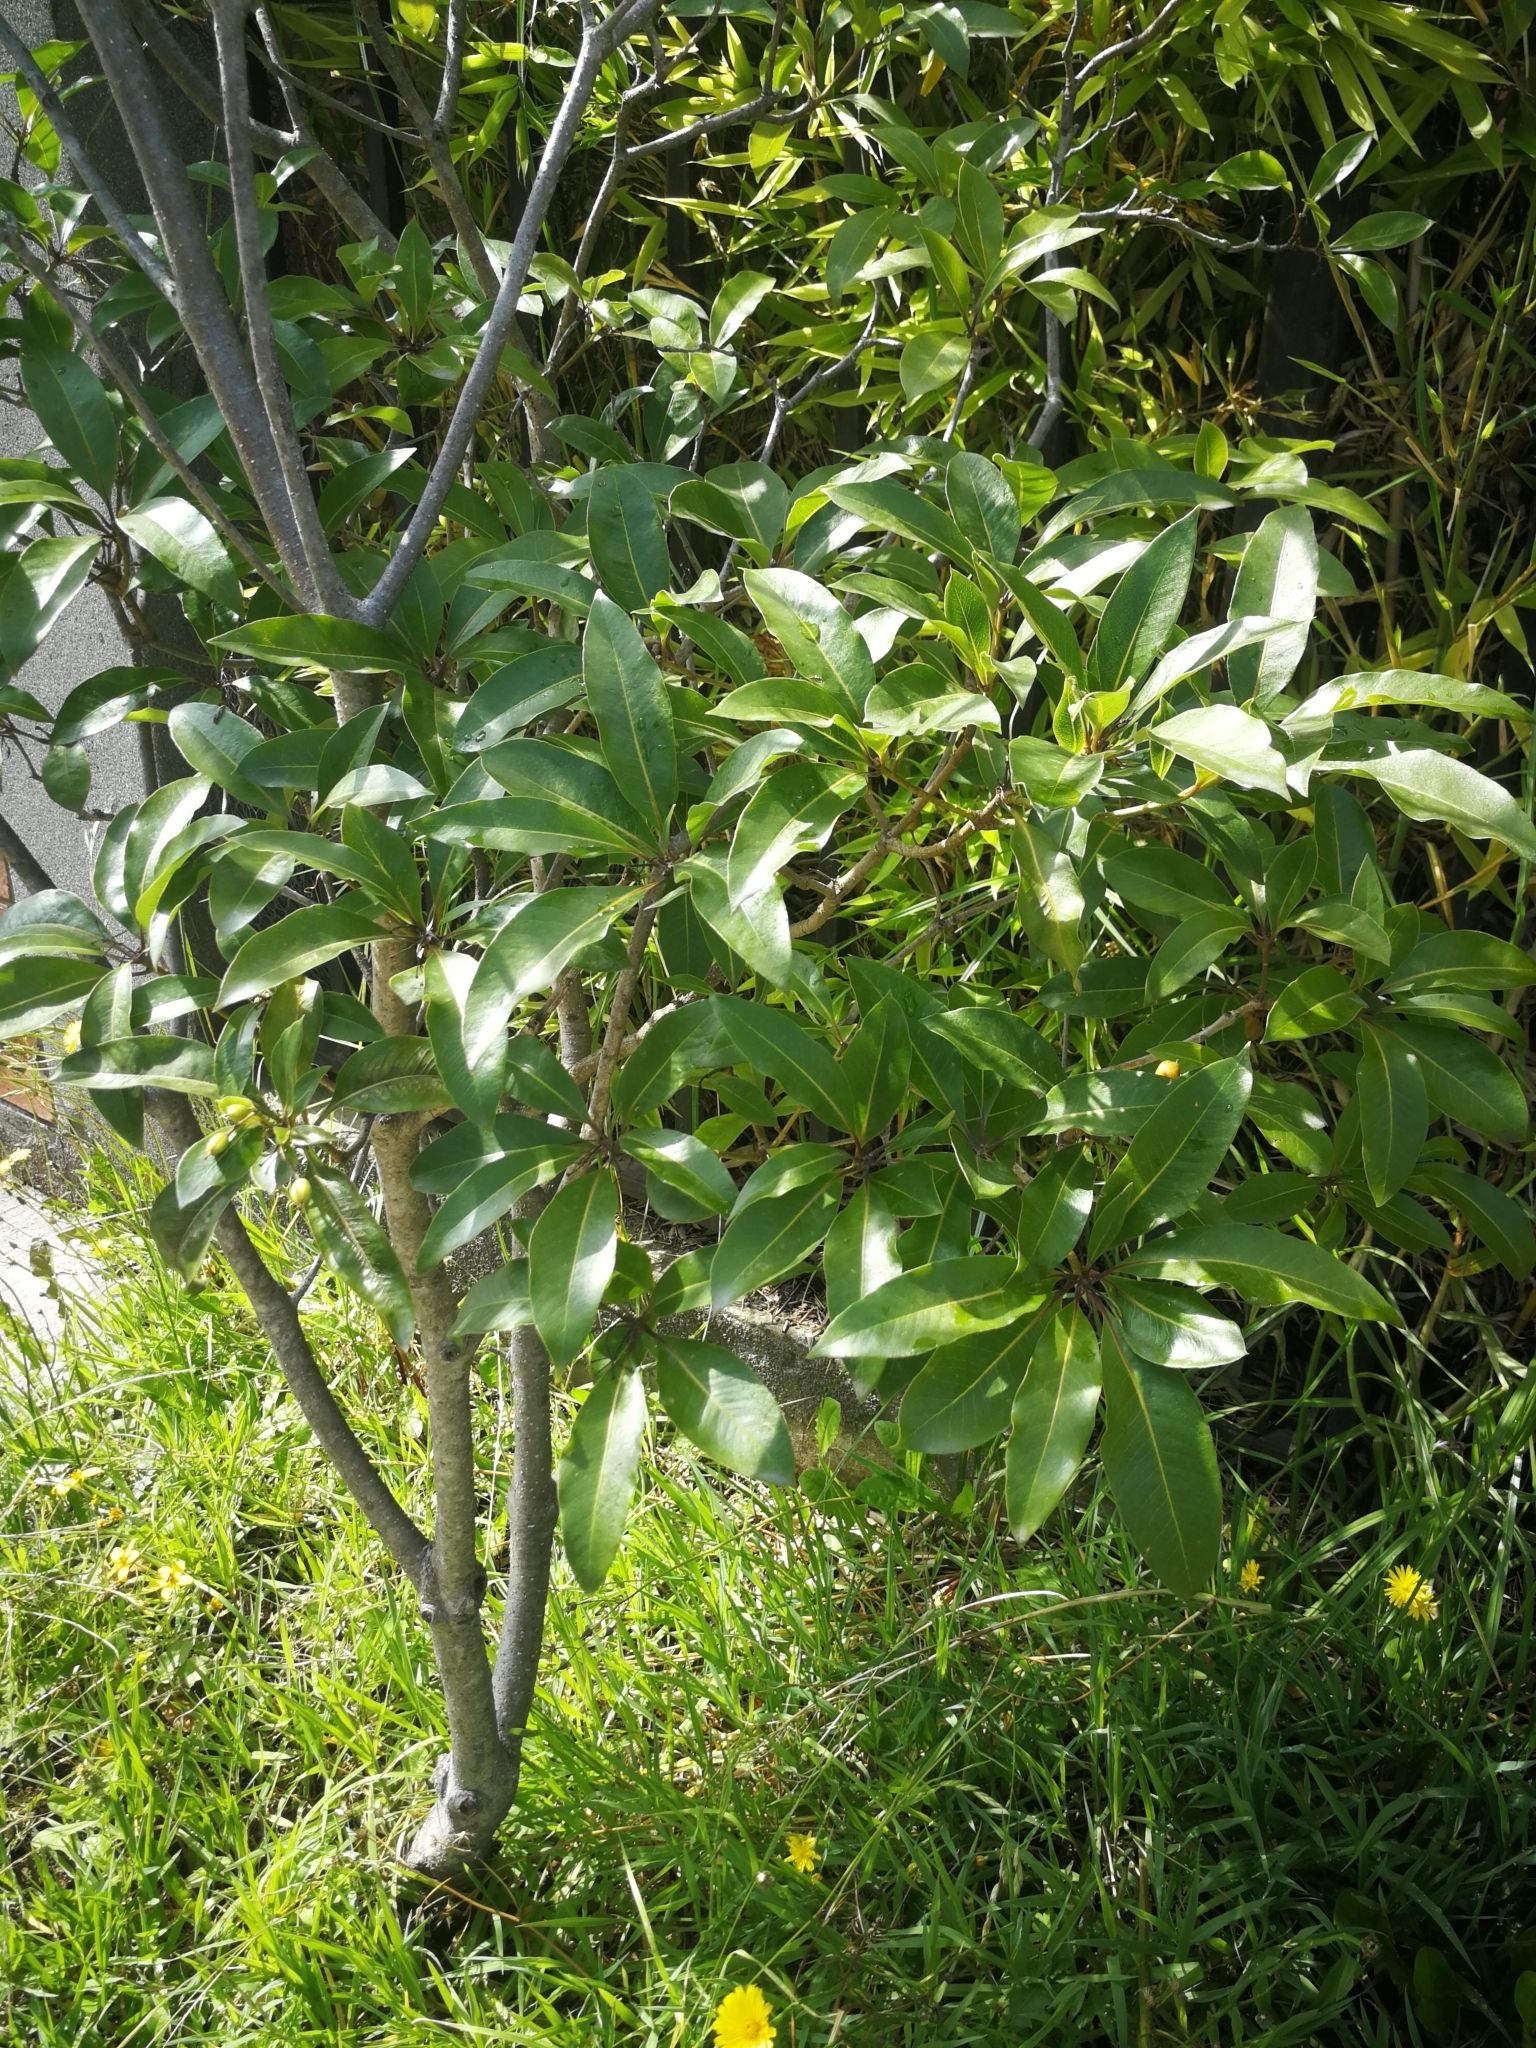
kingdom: Plantae
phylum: Tracheophyta
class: Magnoliopsida
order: Apiales
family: Pittosporaceae
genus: Pittosporum
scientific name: Pittosporum undulatum
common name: Australian cheesewood
